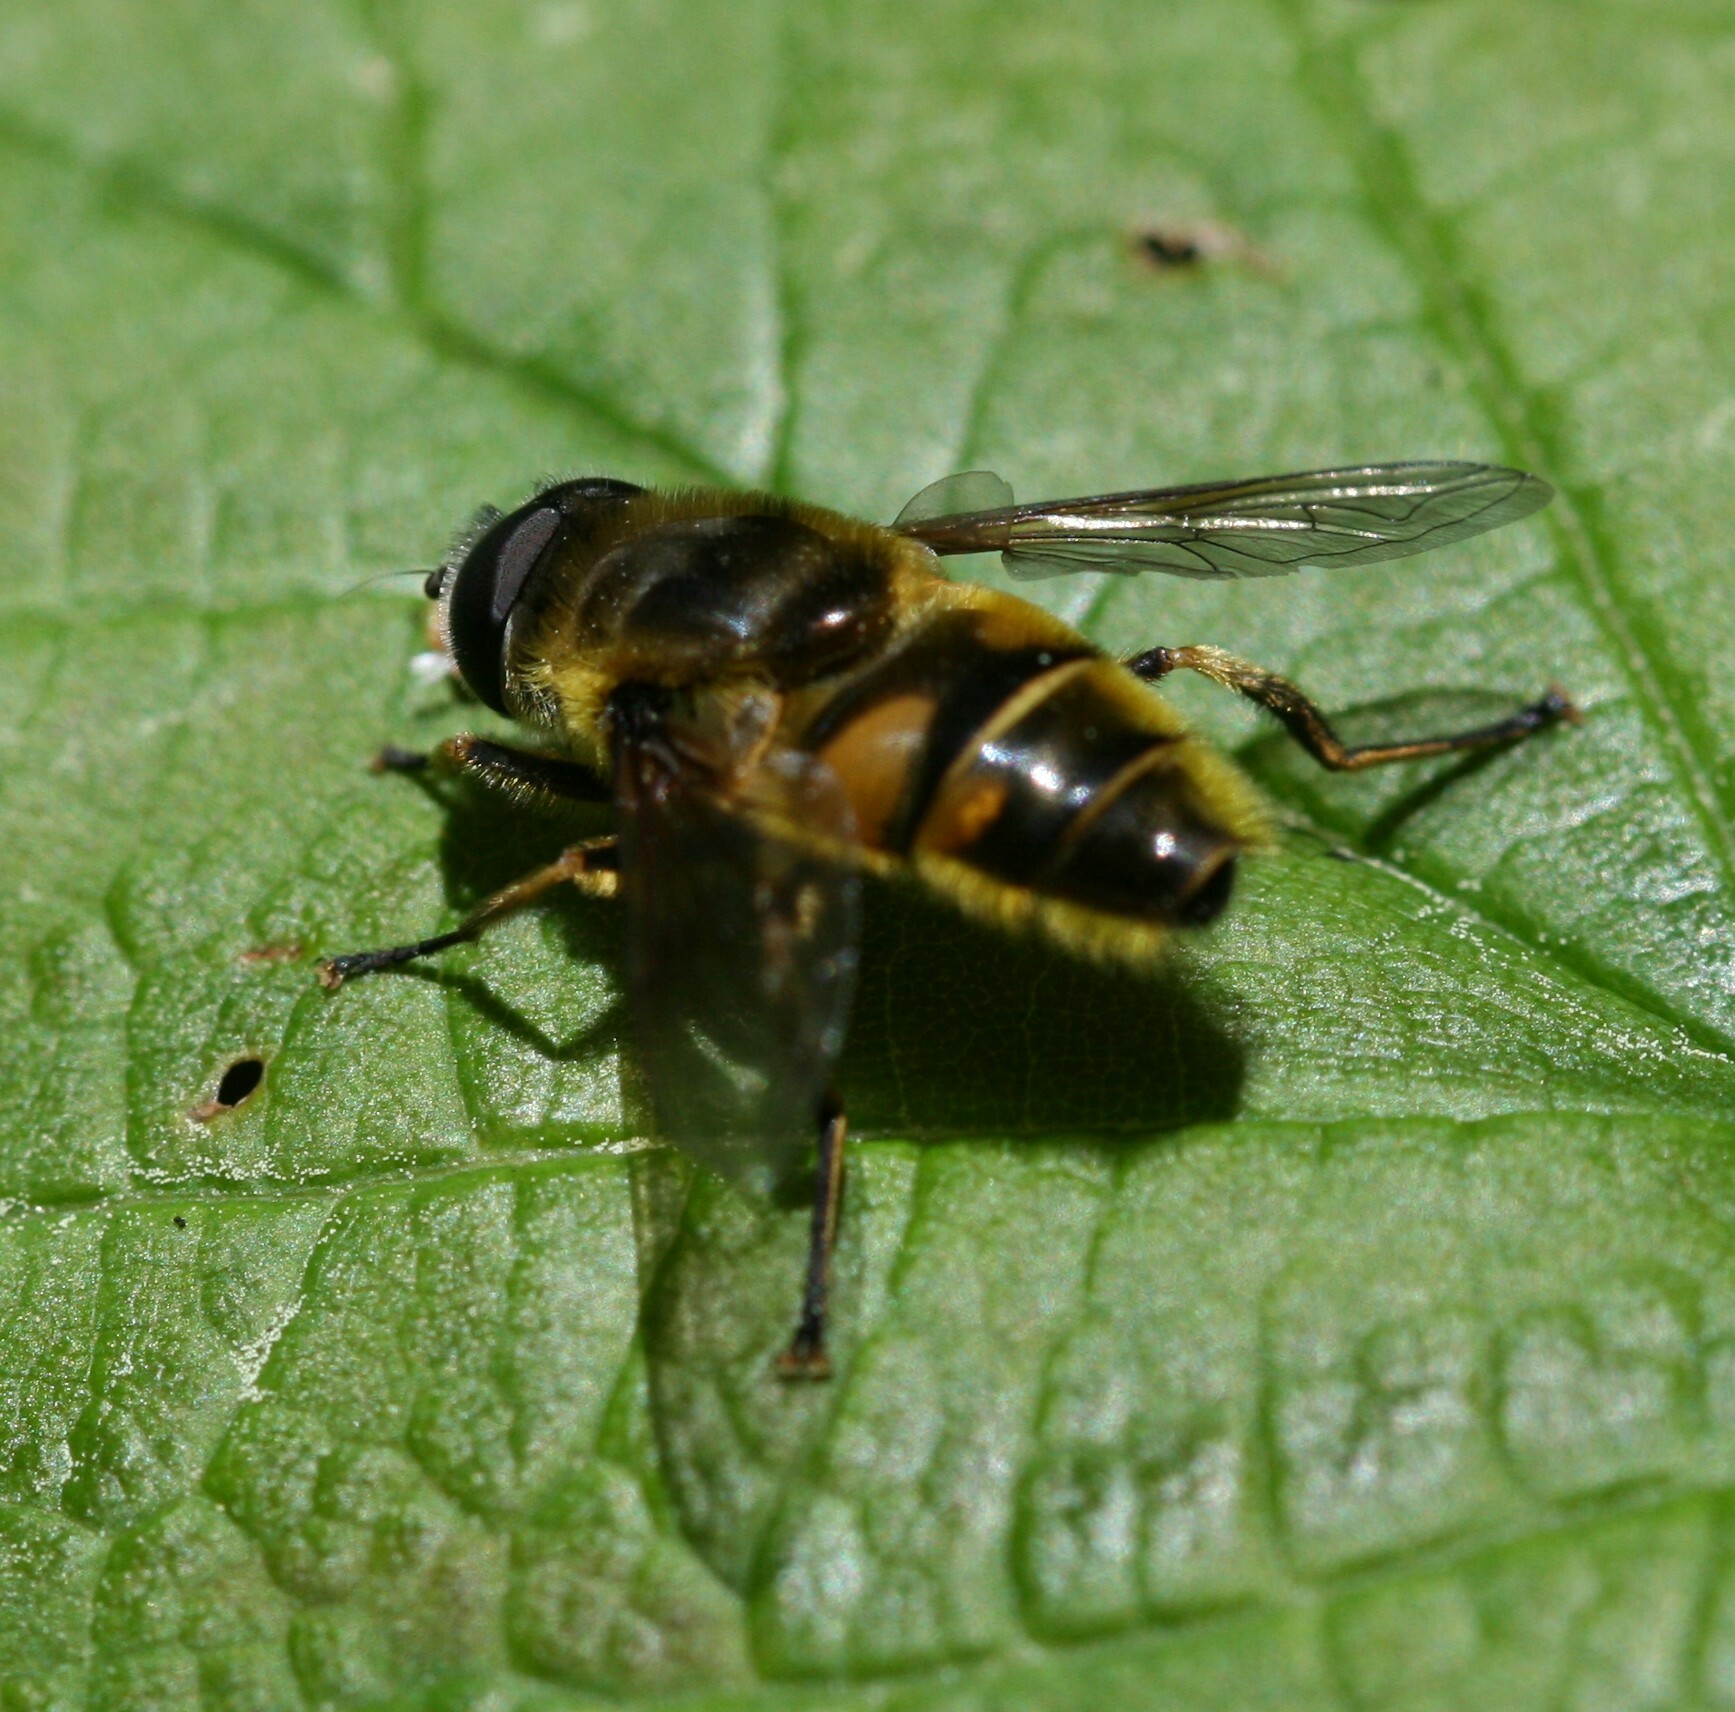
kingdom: Animalia
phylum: Arthropoda
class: Insecta
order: Diptera
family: Syrphidae
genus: Myathropa
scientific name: Myathropa florea
